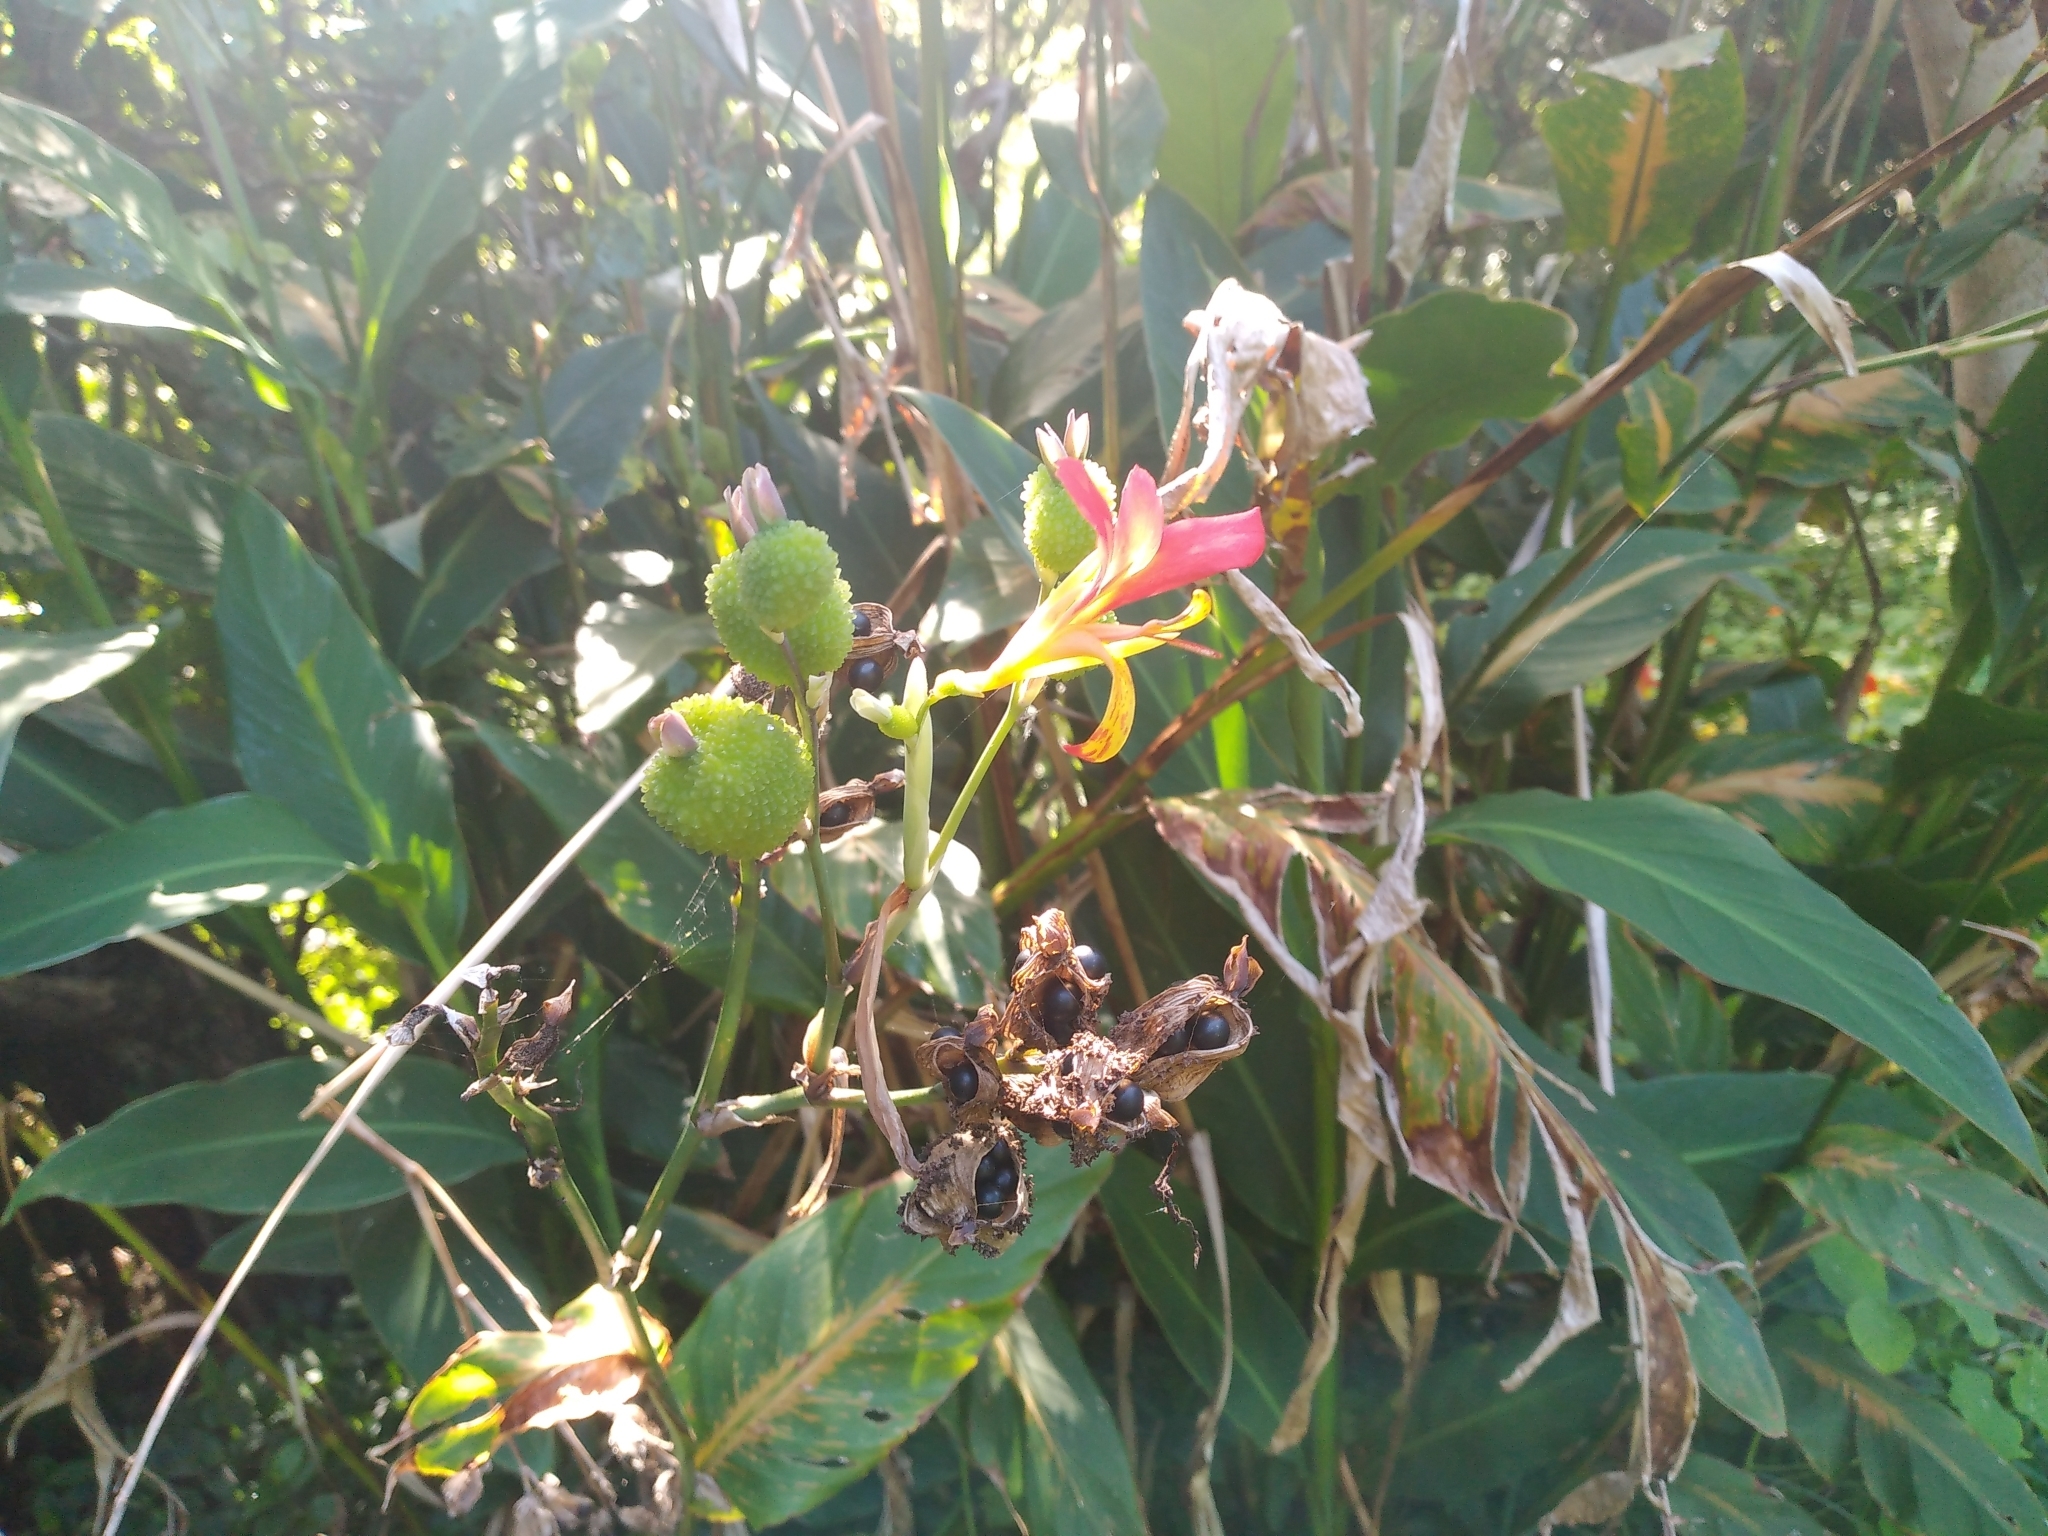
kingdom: Plantae
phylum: Tracheophyta
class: Liliopsida
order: Zingiberales
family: Cannaceae
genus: Canna
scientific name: Canna indica
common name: Indian shot
